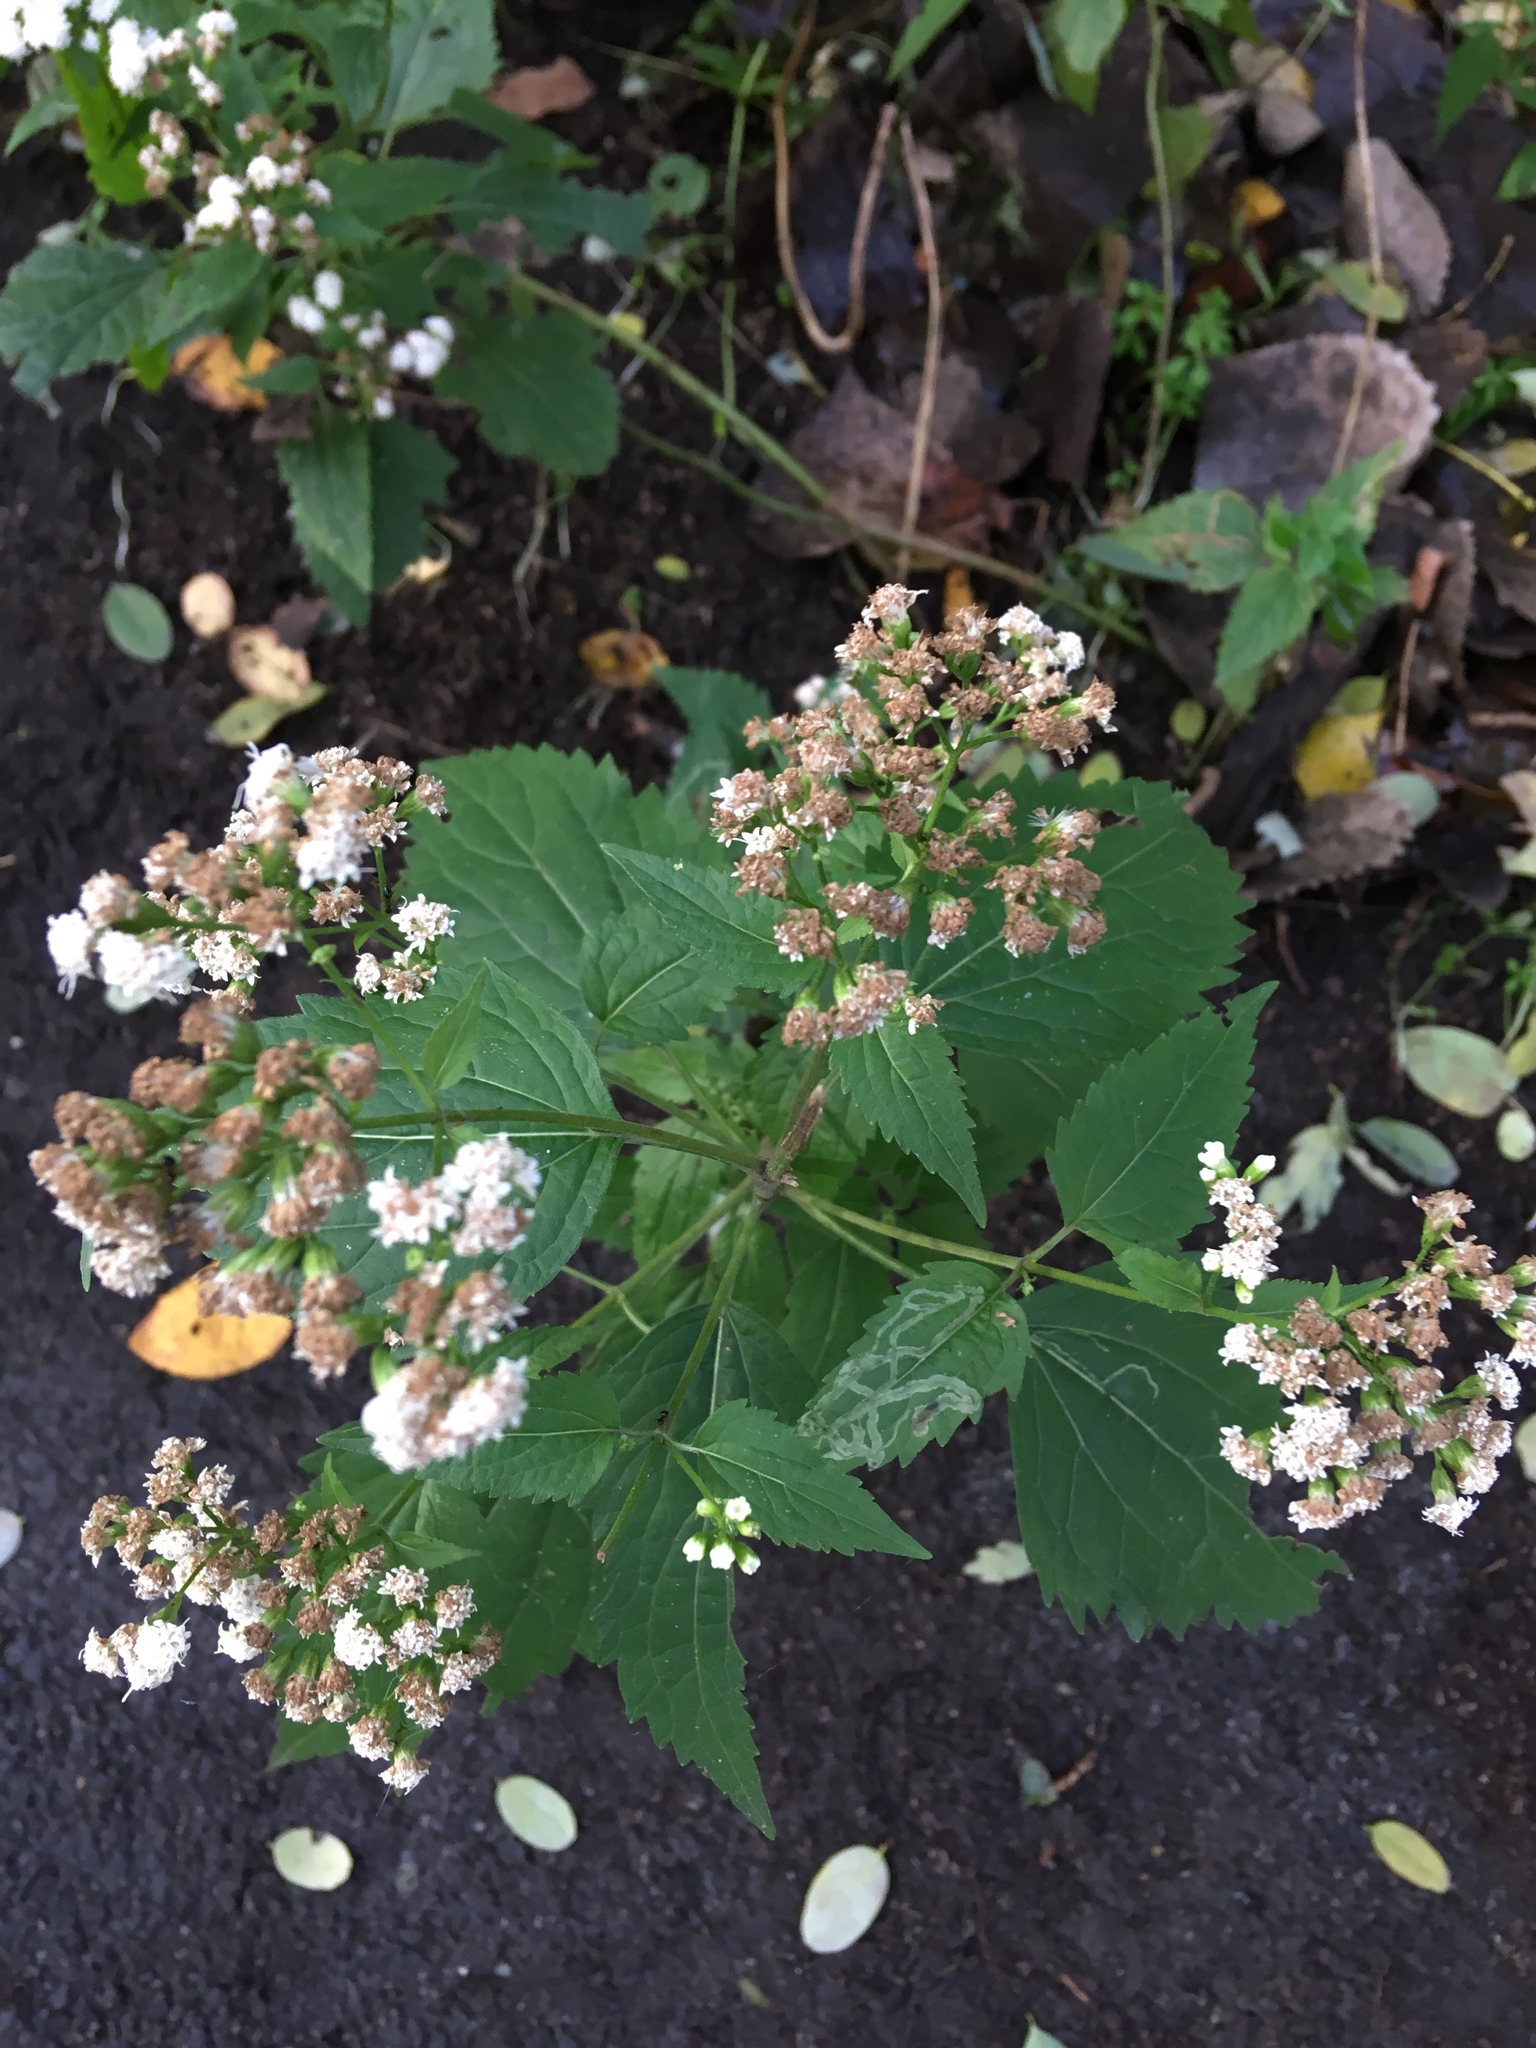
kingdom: Plantae
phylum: Tracheophyta
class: Magnoliopsida
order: Asterales
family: Asteraceae
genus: Ageratina
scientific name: Ageratina altissima
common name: White snakeroot
